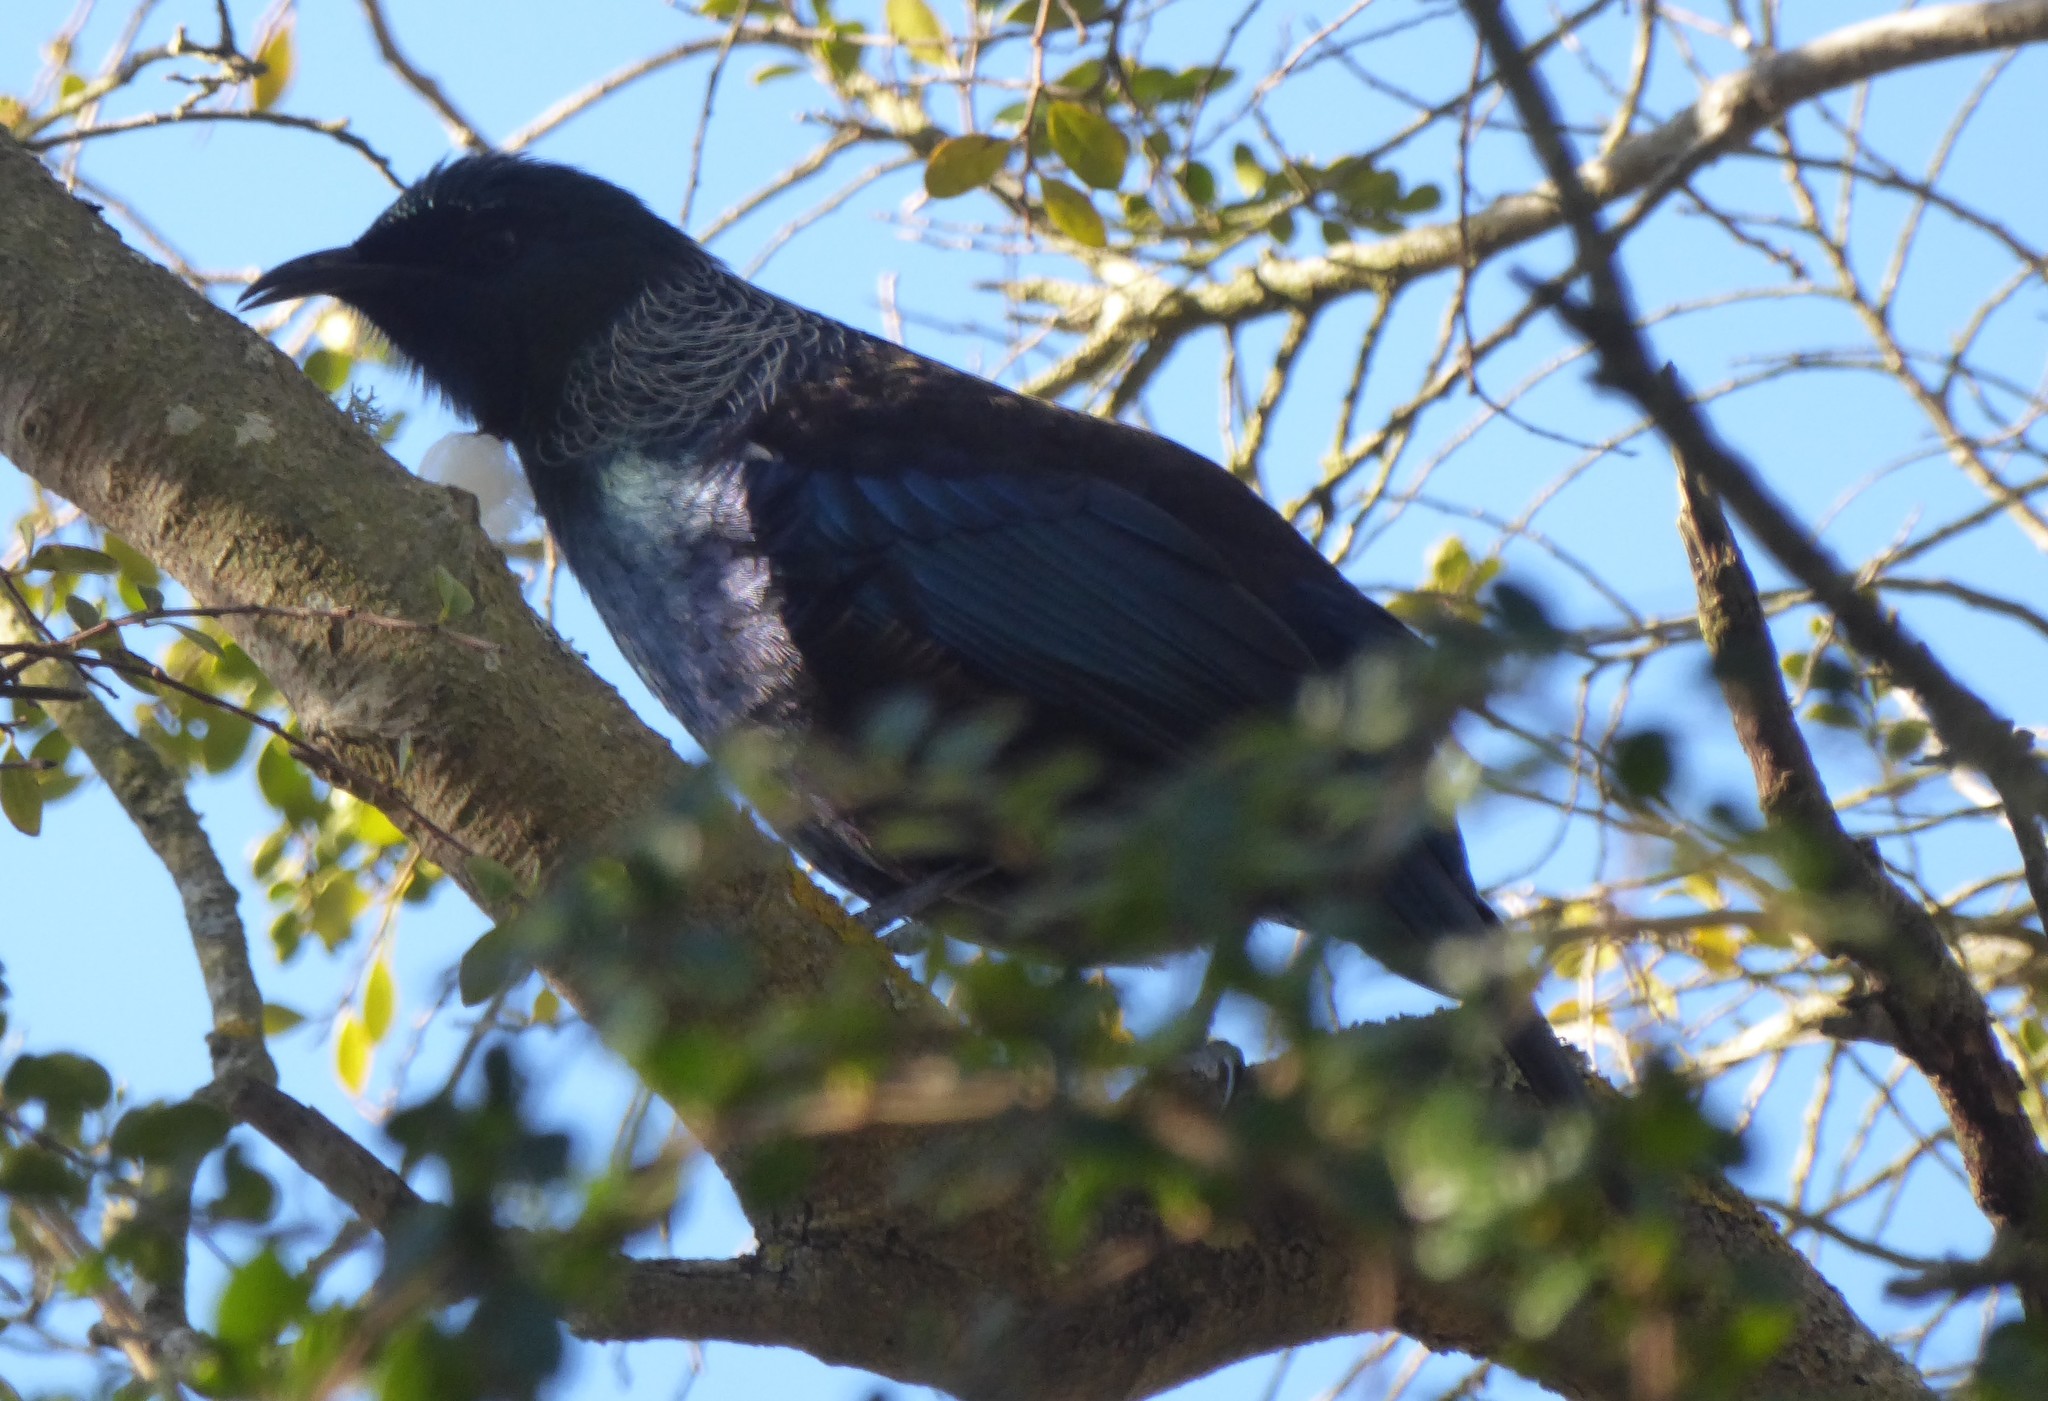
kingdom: Animalia
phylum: Chordata
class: Aves
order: Passeriformes
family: Meliphagidae
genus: Prosthemadera
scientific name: Prosthemadera novaeseelandiae
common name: Tui
